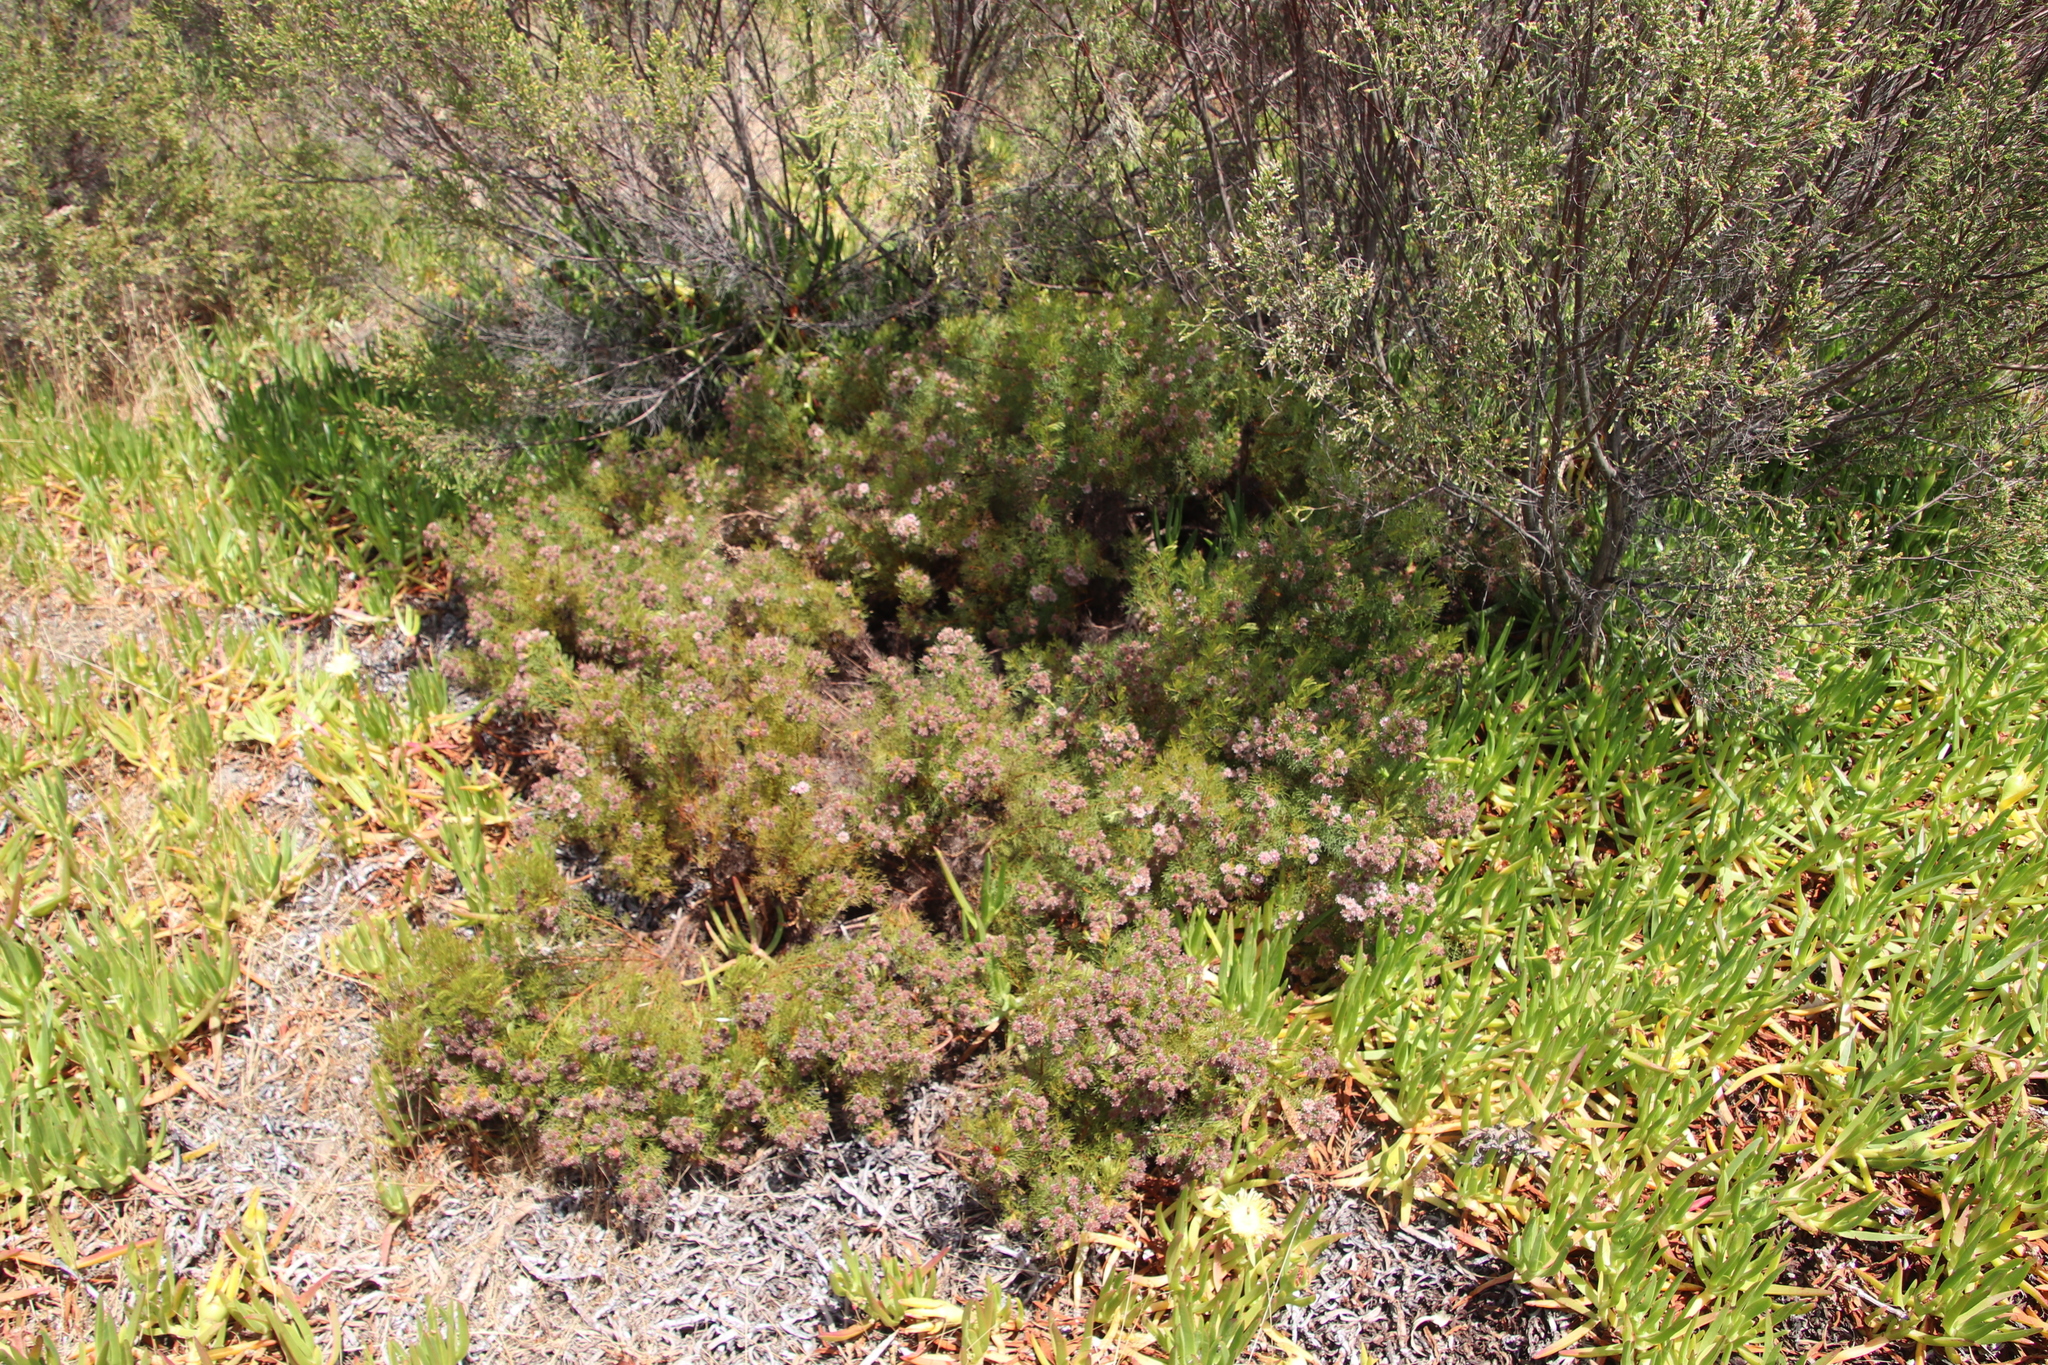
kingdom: Plantae
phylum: Tracheophyta
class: Magnoliopsida
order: Proteales
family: Proteaceae
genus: Serruria
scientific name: Serruria
